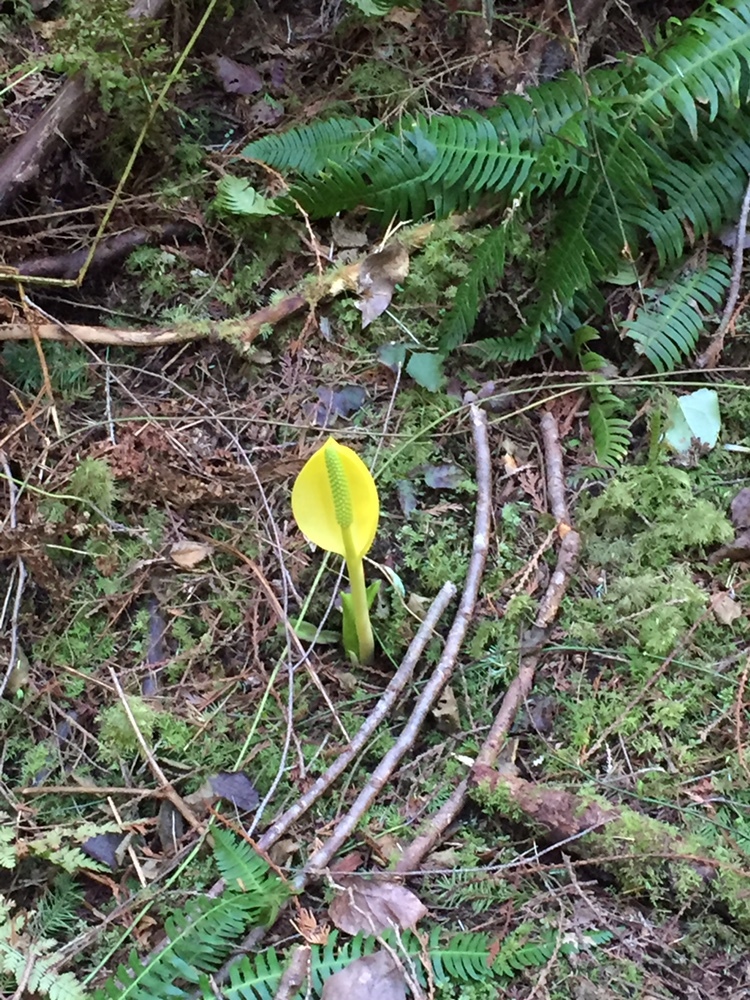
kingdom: Plantae
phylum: Tracheophyta
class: Liliopsida
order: Alismatales
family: Araceae
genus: Lysichiton
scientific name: Lysichiton americanus
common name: American skunk cabbage
